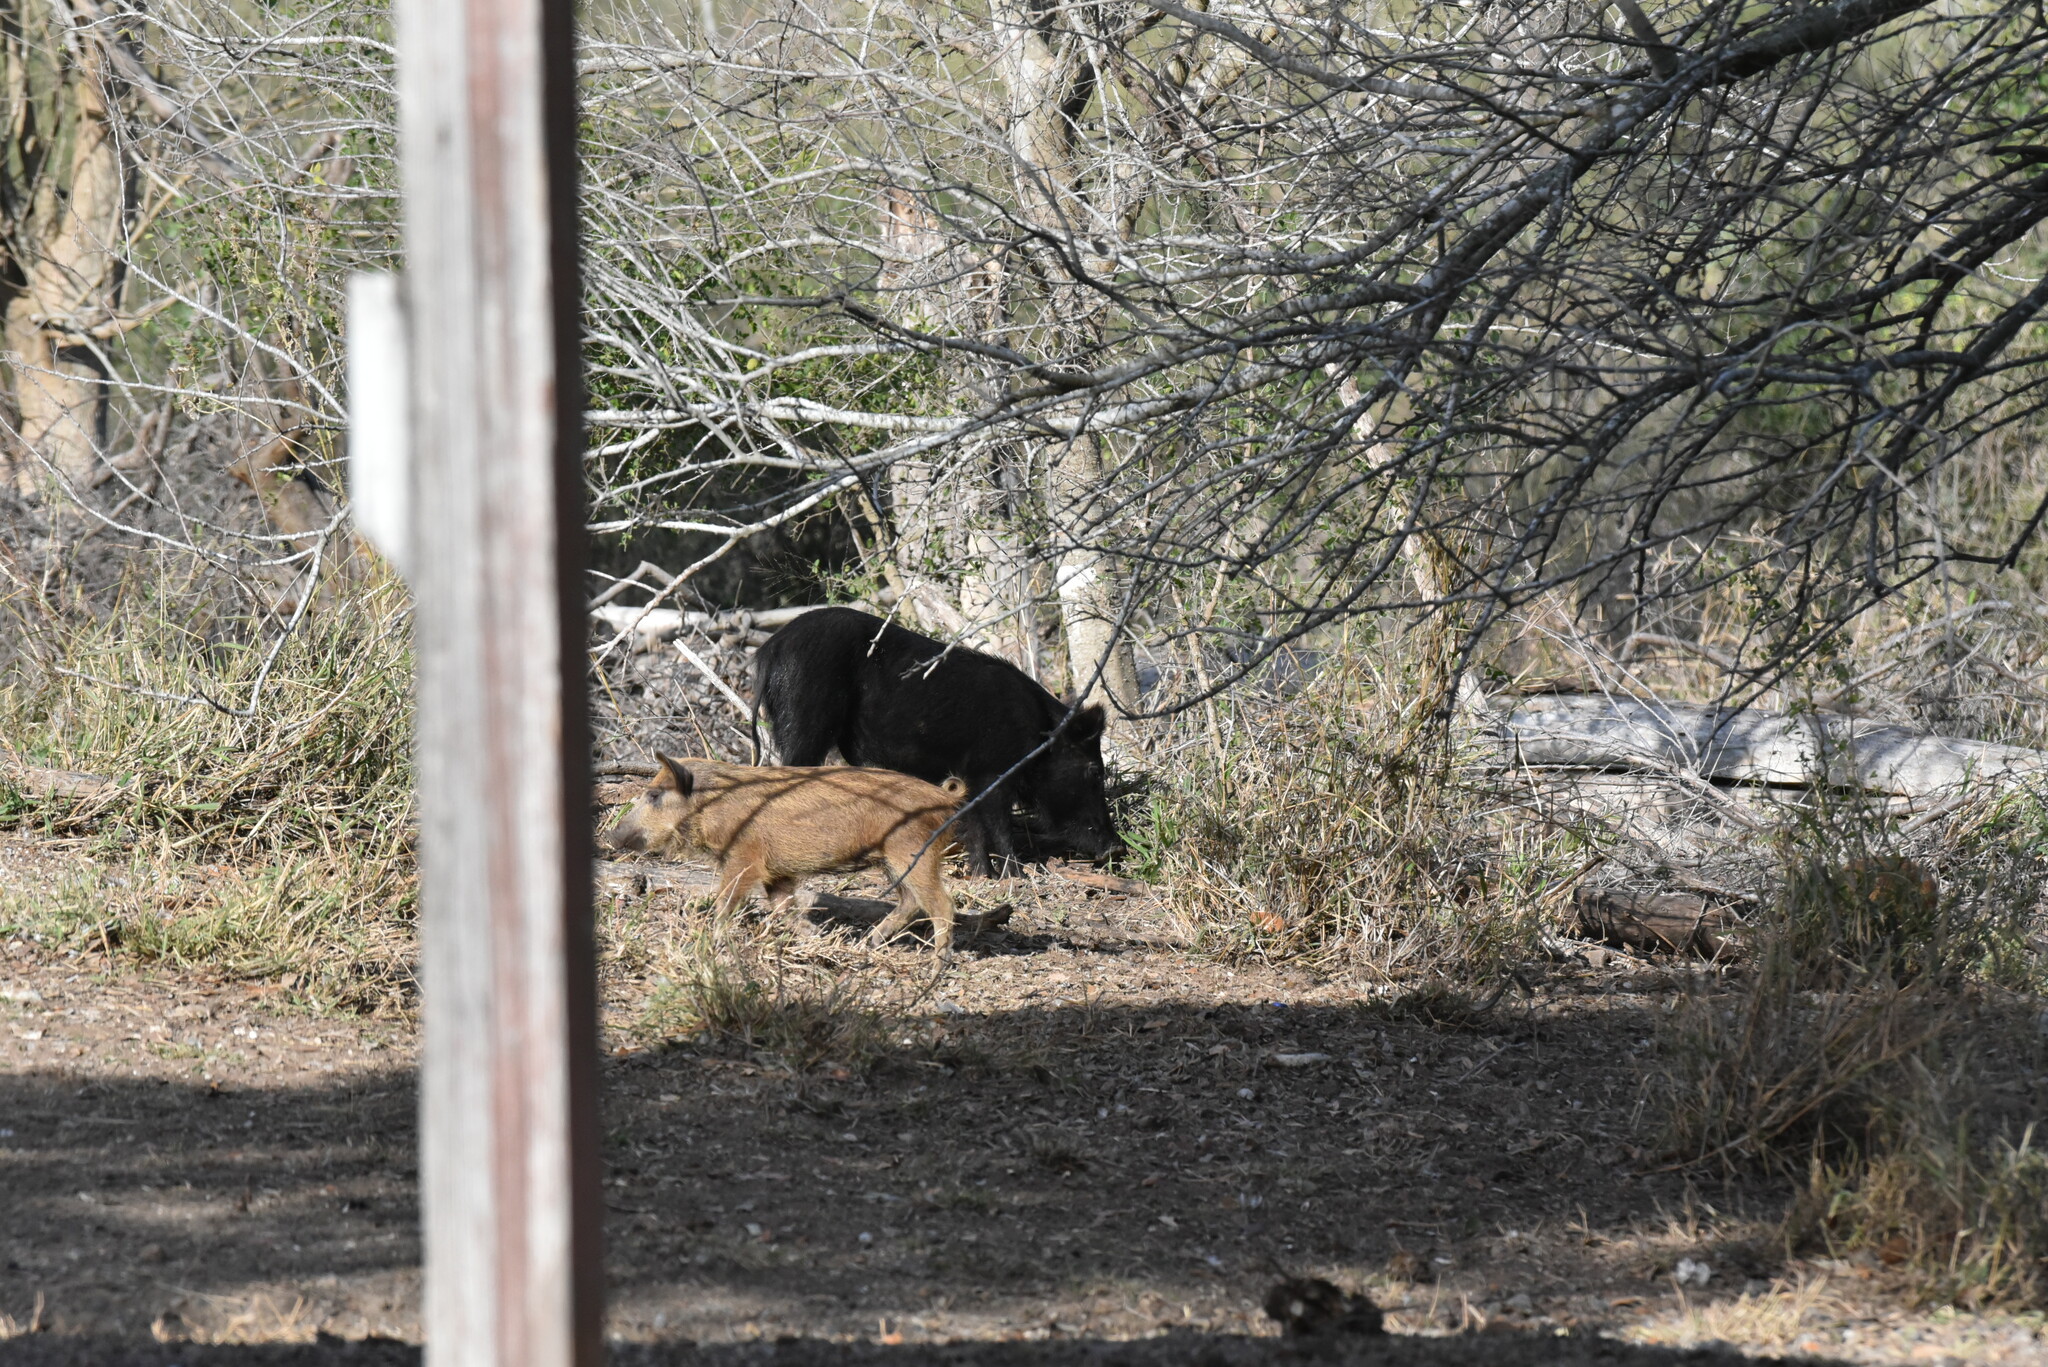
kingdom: Animalia
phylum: Chordata
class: Mammalia
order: Artiodactyla
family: Suidae
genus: Sus
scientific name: Sus scrofa
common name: Wild boar
